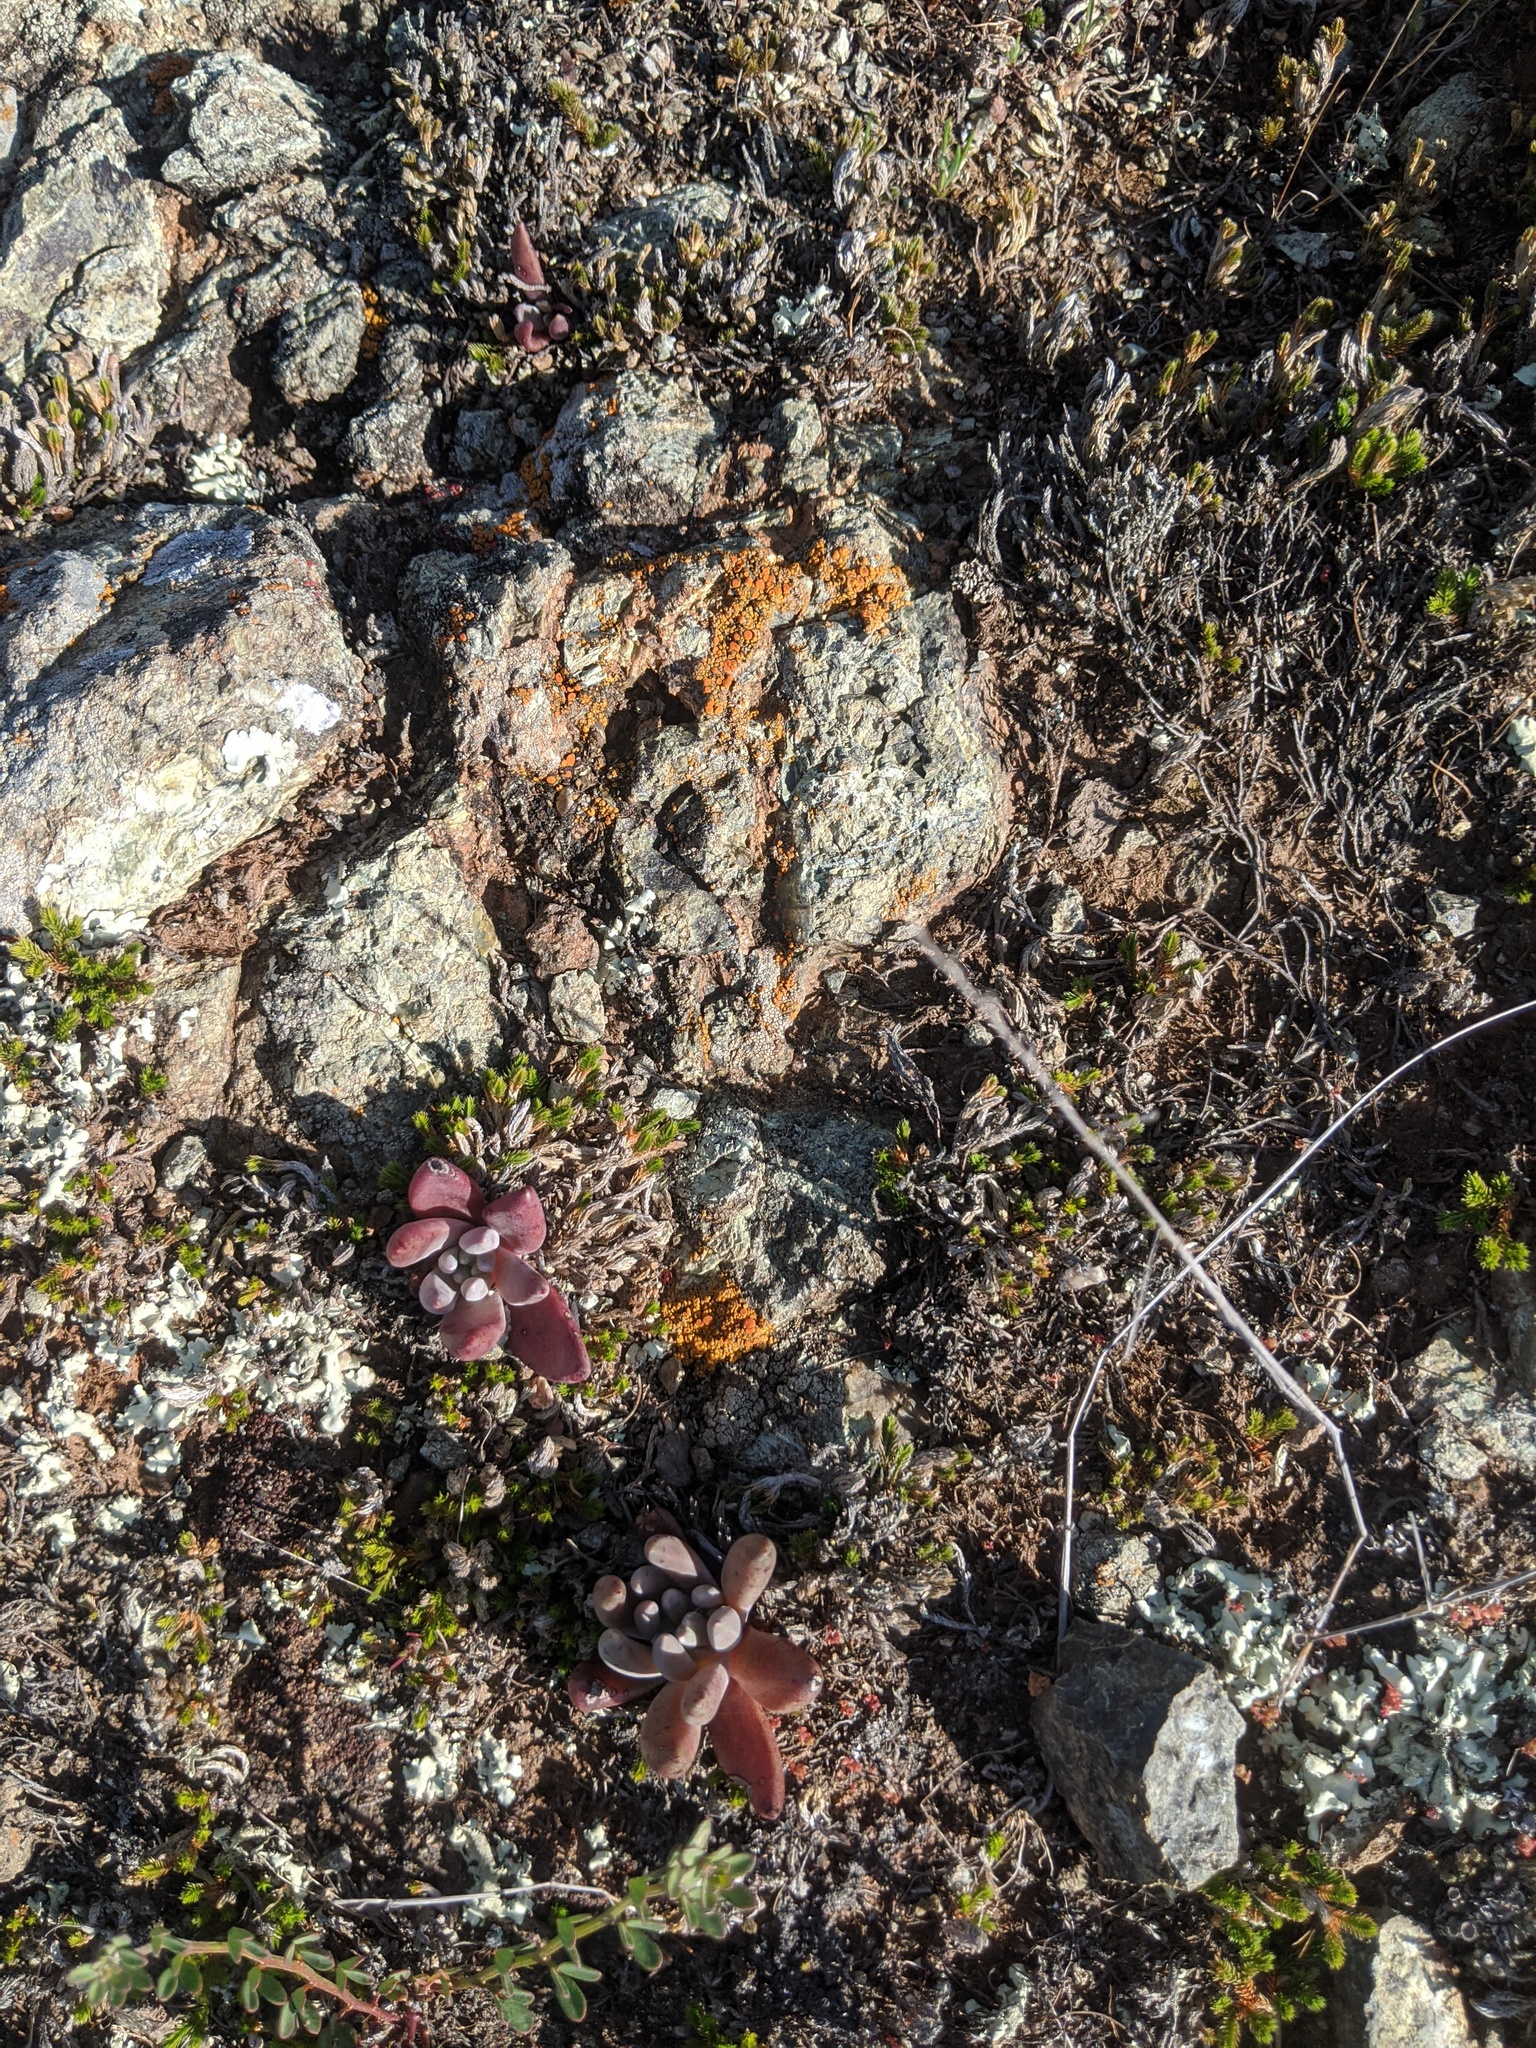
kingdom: Plantae
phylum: Tracheophyta
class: Magnoliopsida
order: Saxifragales
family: Crassulaceae
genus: Dudleya
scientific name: Dudleya abramsii
